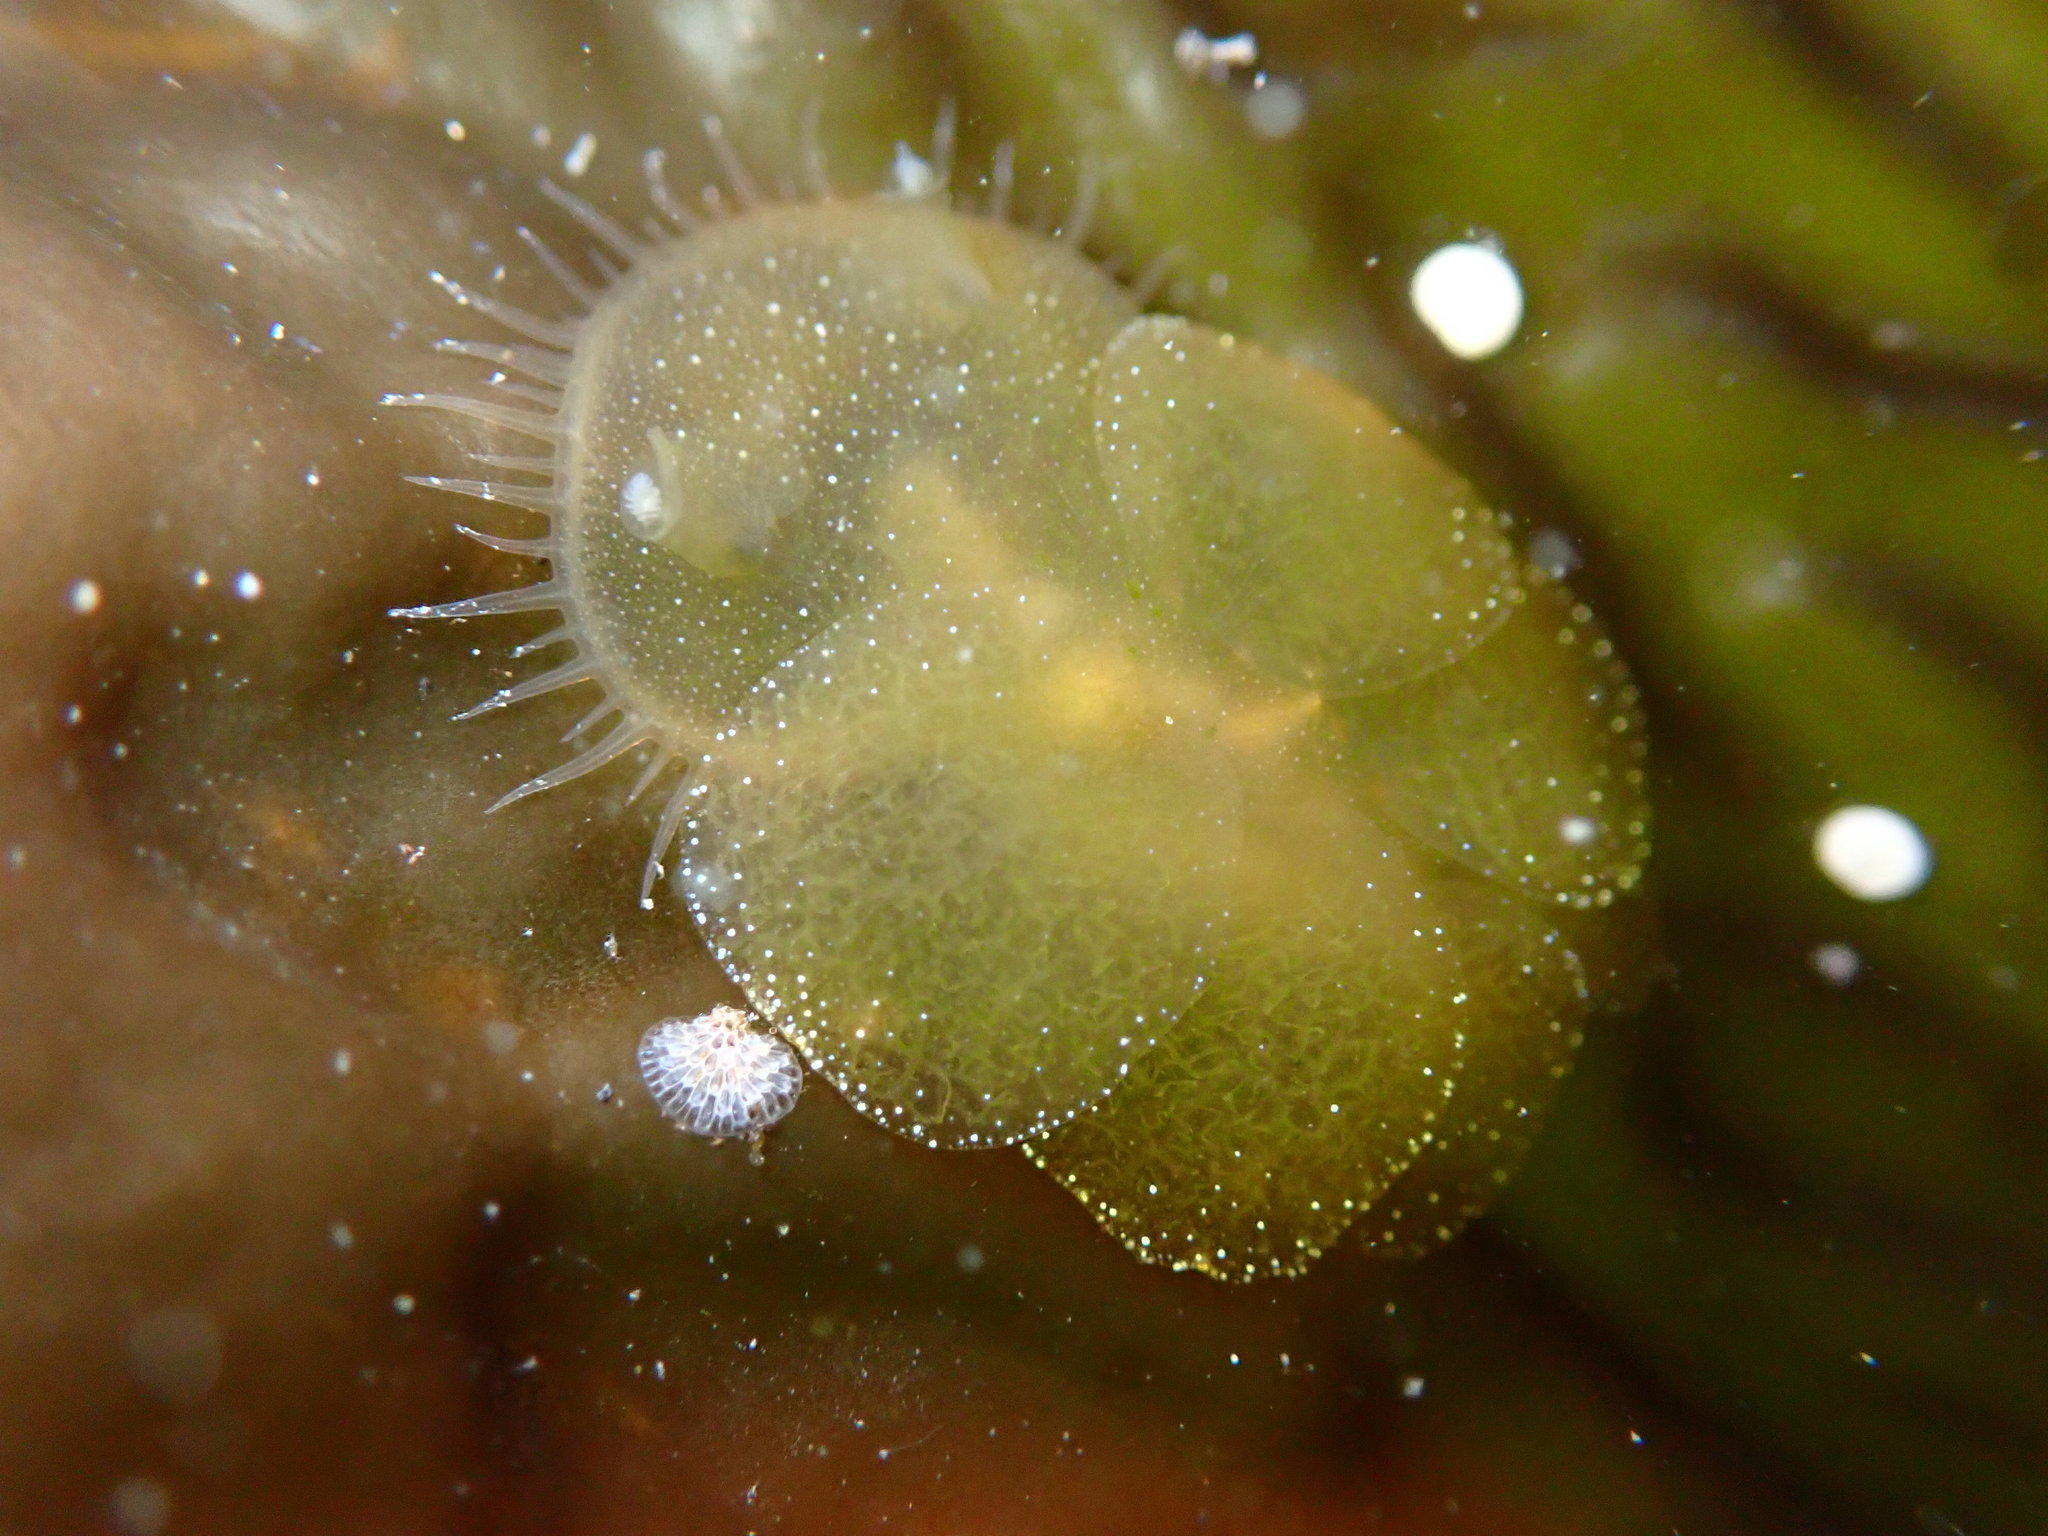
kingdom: Animalia
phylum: Mollusca
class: Gastropoda
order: Nudibranchia
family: Tethydidae
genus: Melibe
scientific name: Melibe leonina
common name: Lion nudibranch
